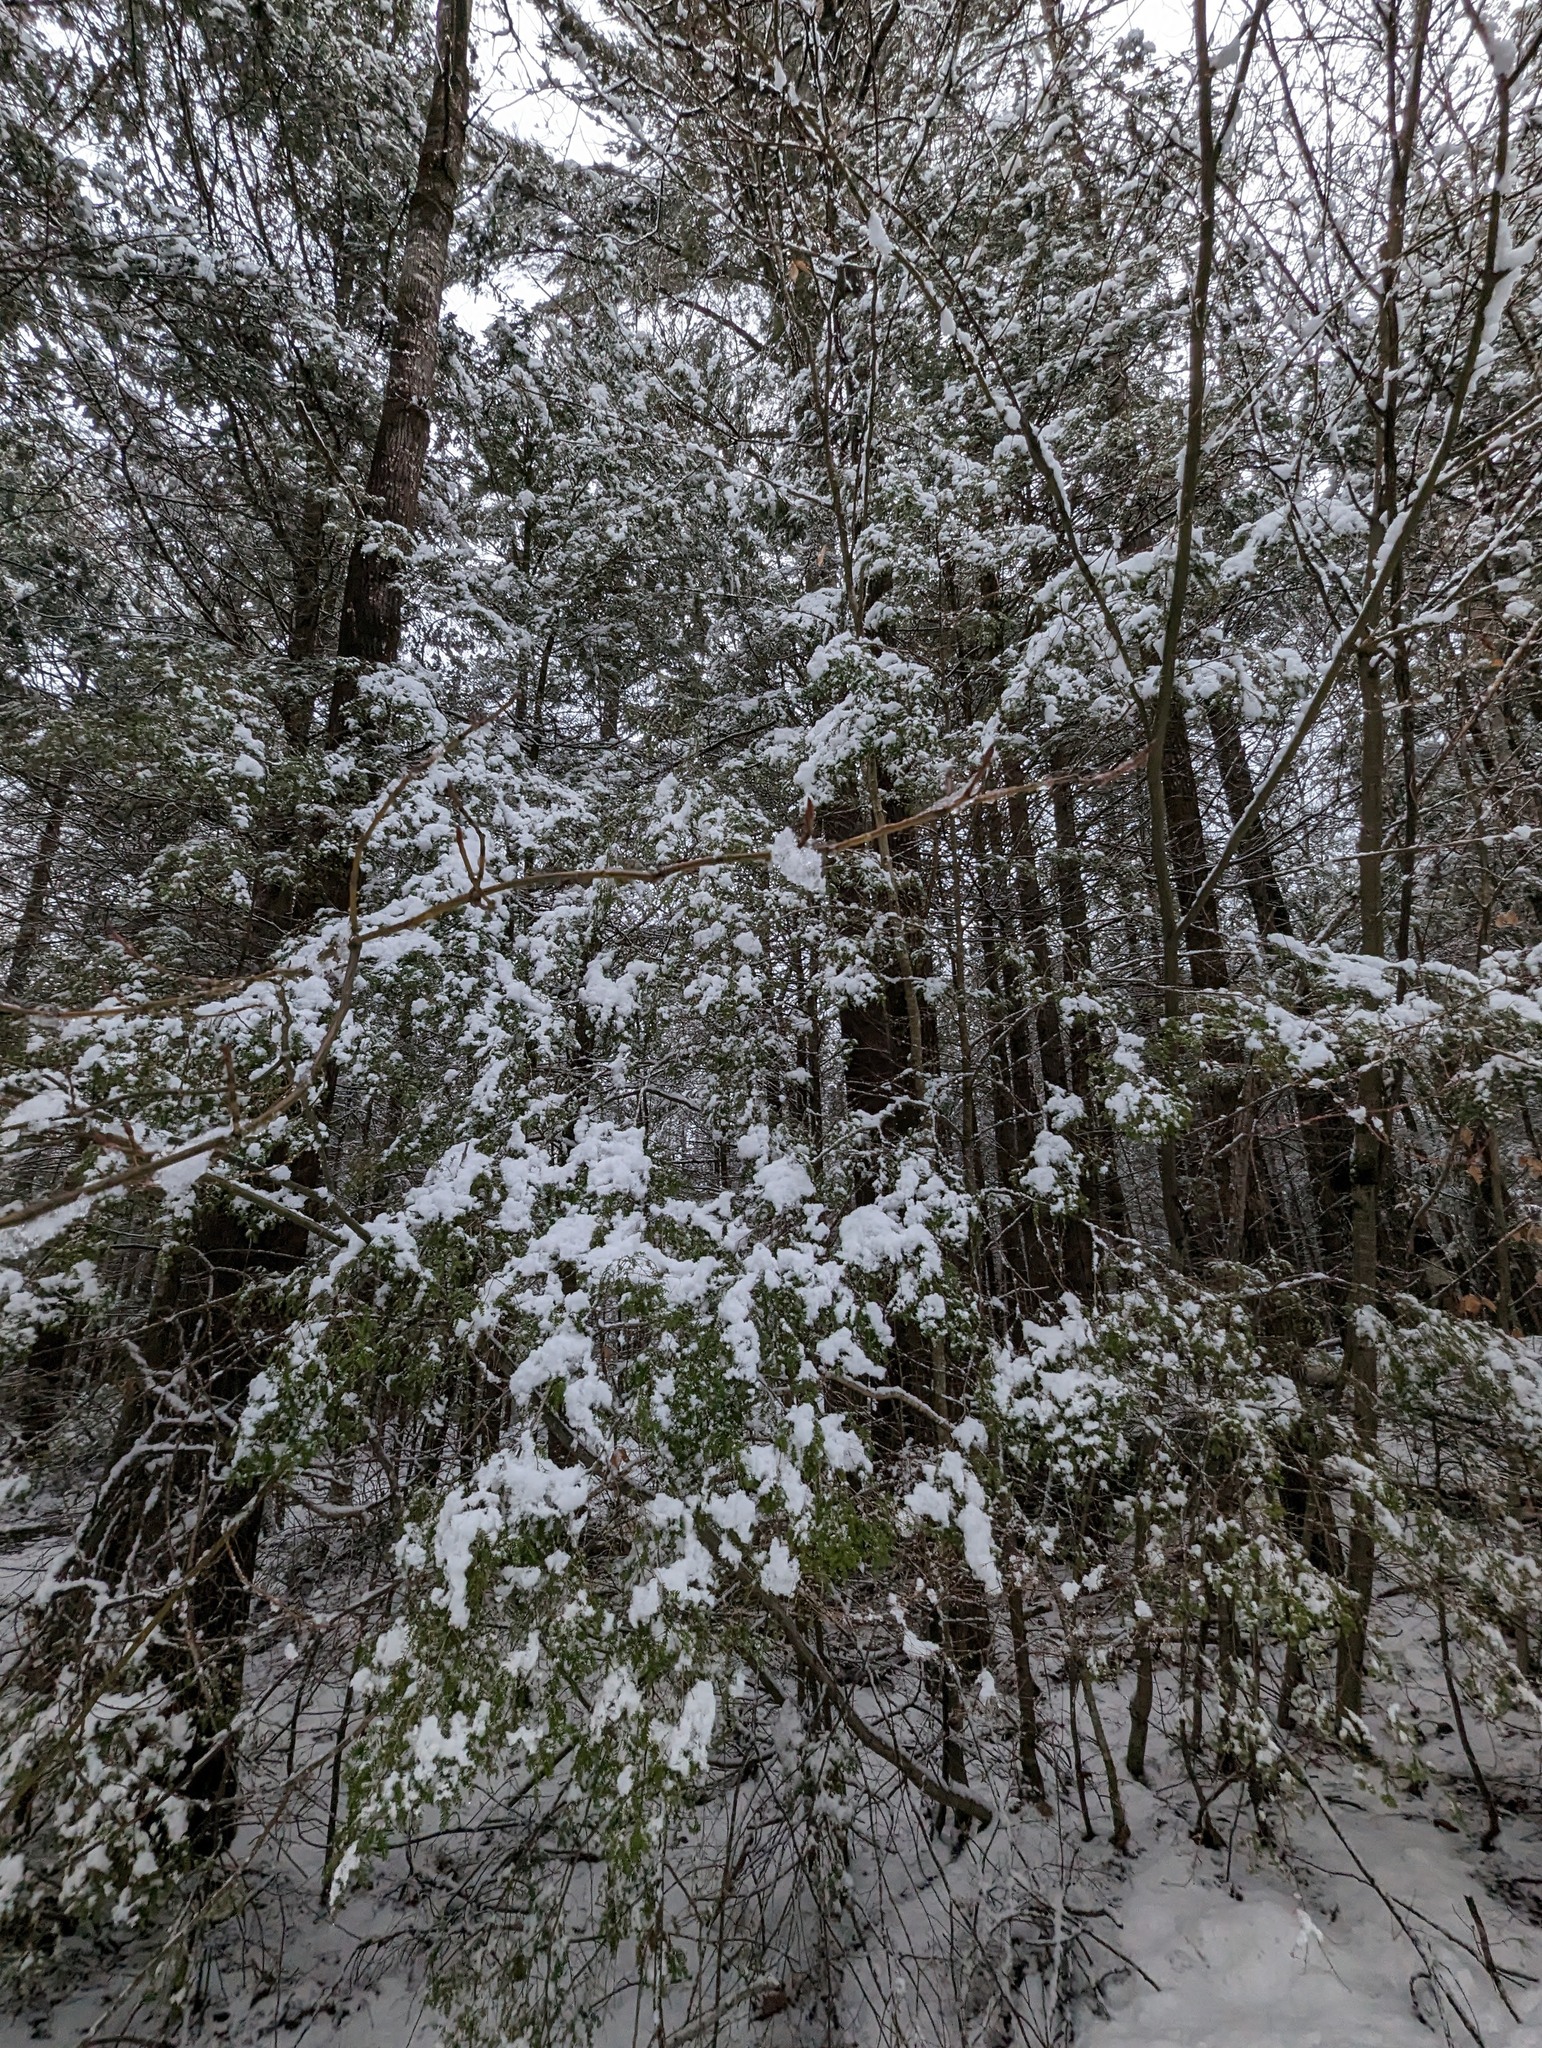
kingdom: Plantae
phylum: Tracheophyta
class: Pinopsida
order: Pinales
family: Pinaceae
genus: Tsuga
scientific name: Tsuga canadensis
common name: Eastern hemlock
